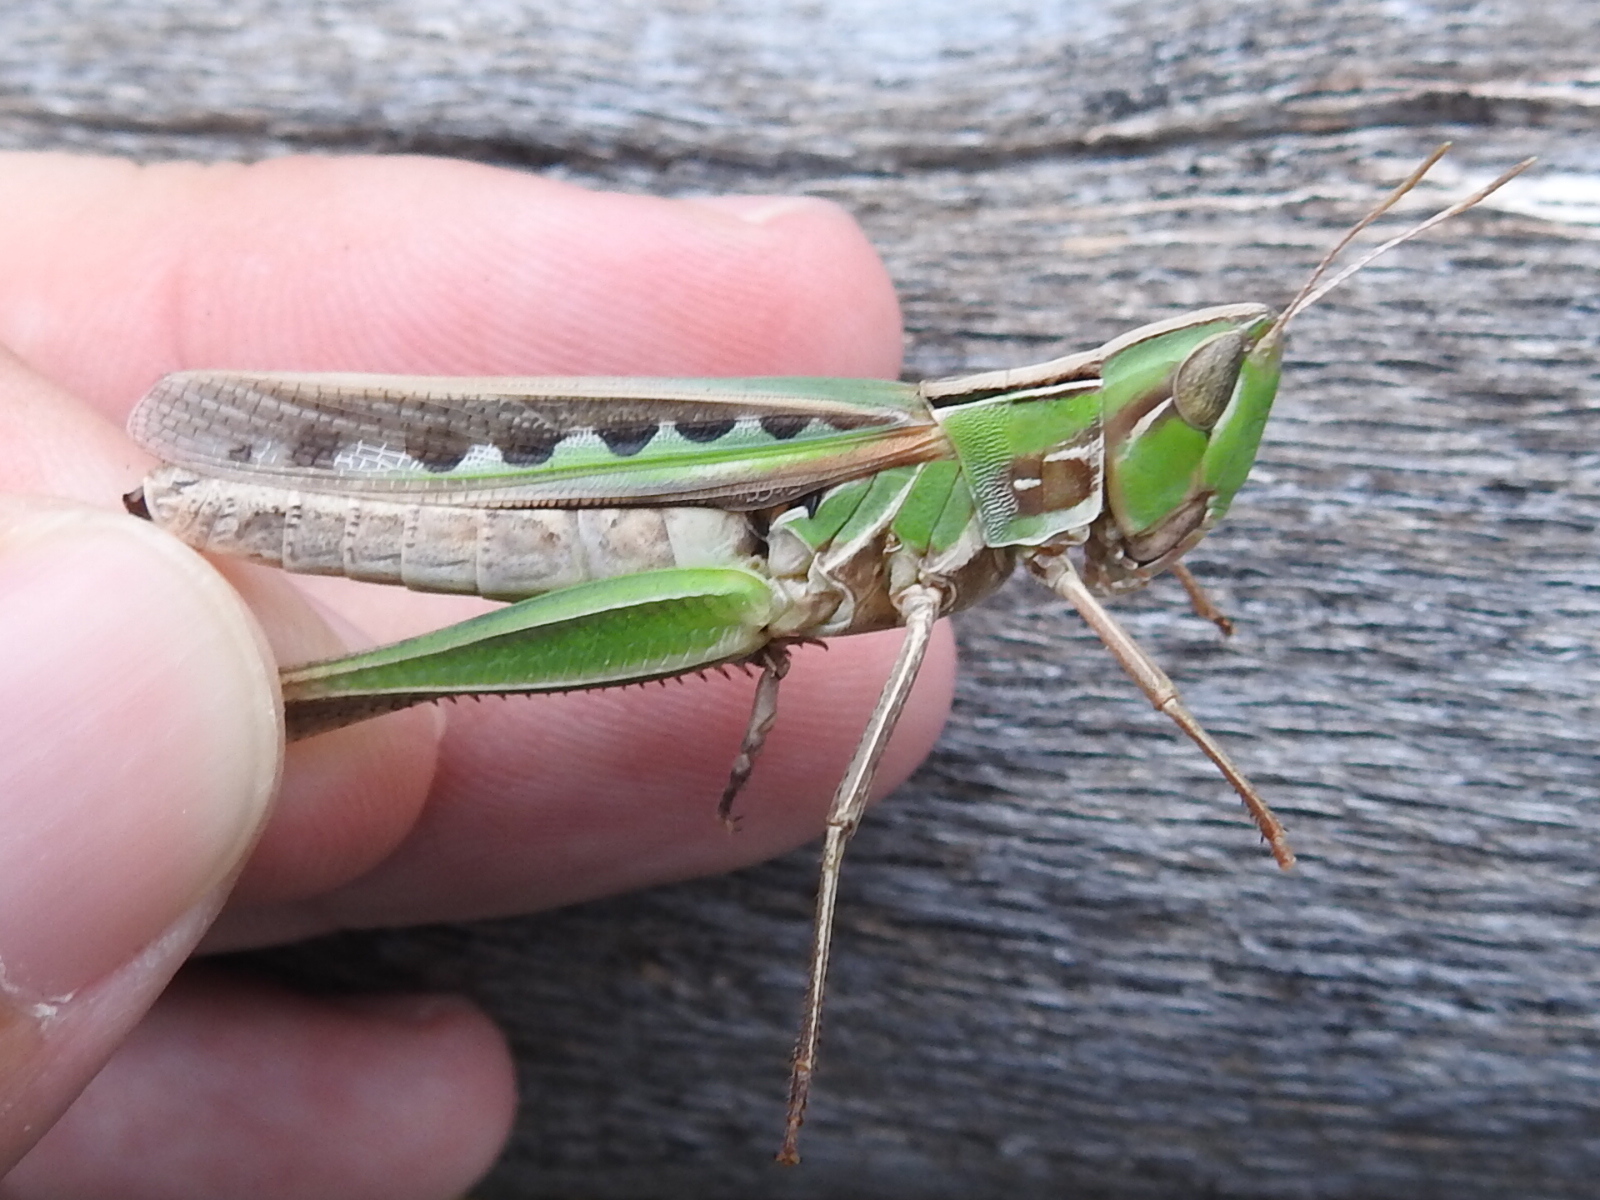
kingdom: Animalia
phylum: Arthropoda
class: Insecta
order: Orthoptera
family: Acrididae
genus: Syrbula
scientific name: Syrbula admirabilis
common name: Handsome grasshopper
